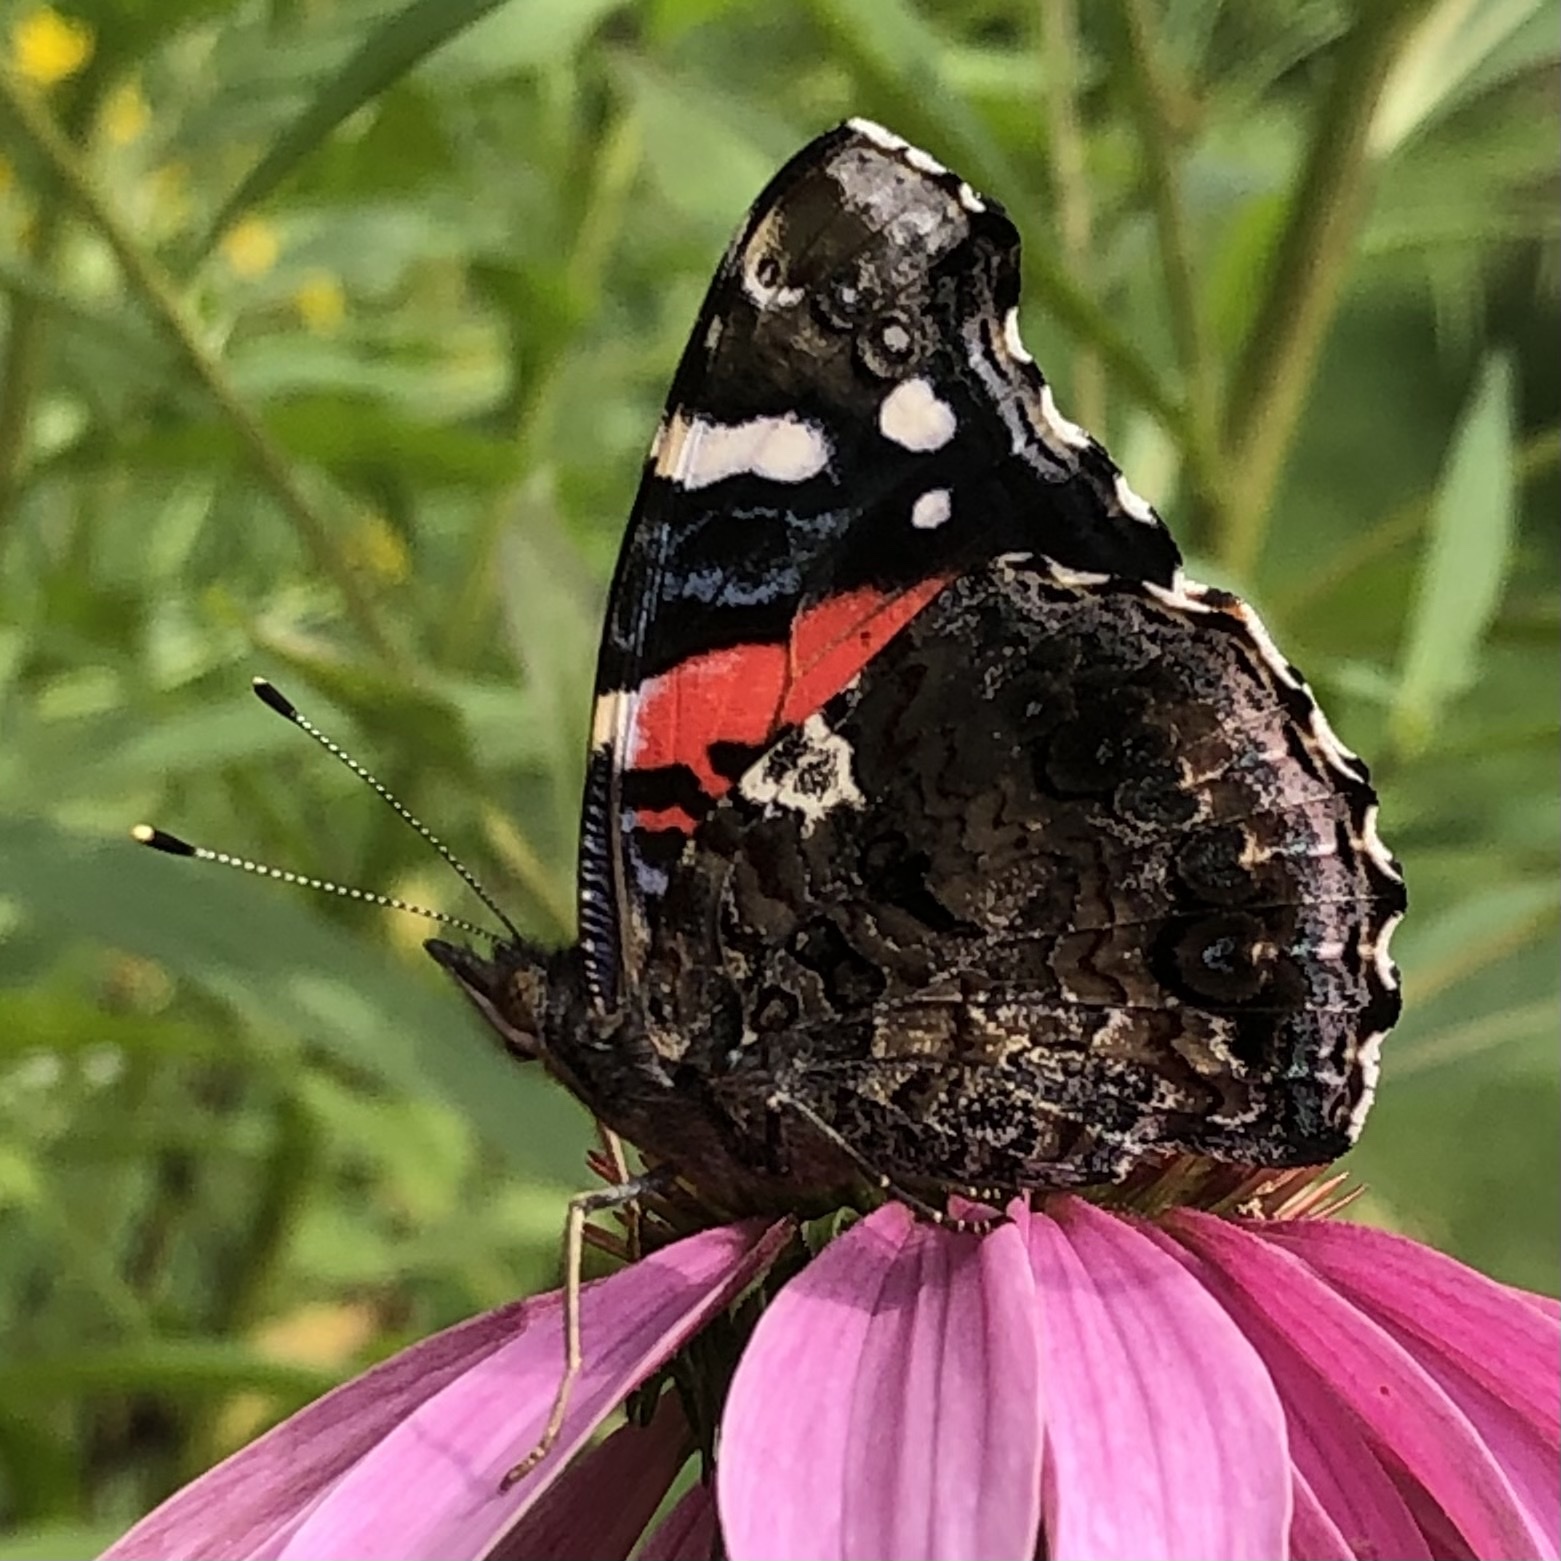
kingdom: Animalia
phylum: Arthropoda
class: Insecta
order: Lepidoptera
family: Nymphalidae
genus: Vanessa
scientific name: Vanessa atalanta
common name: Red admiral
